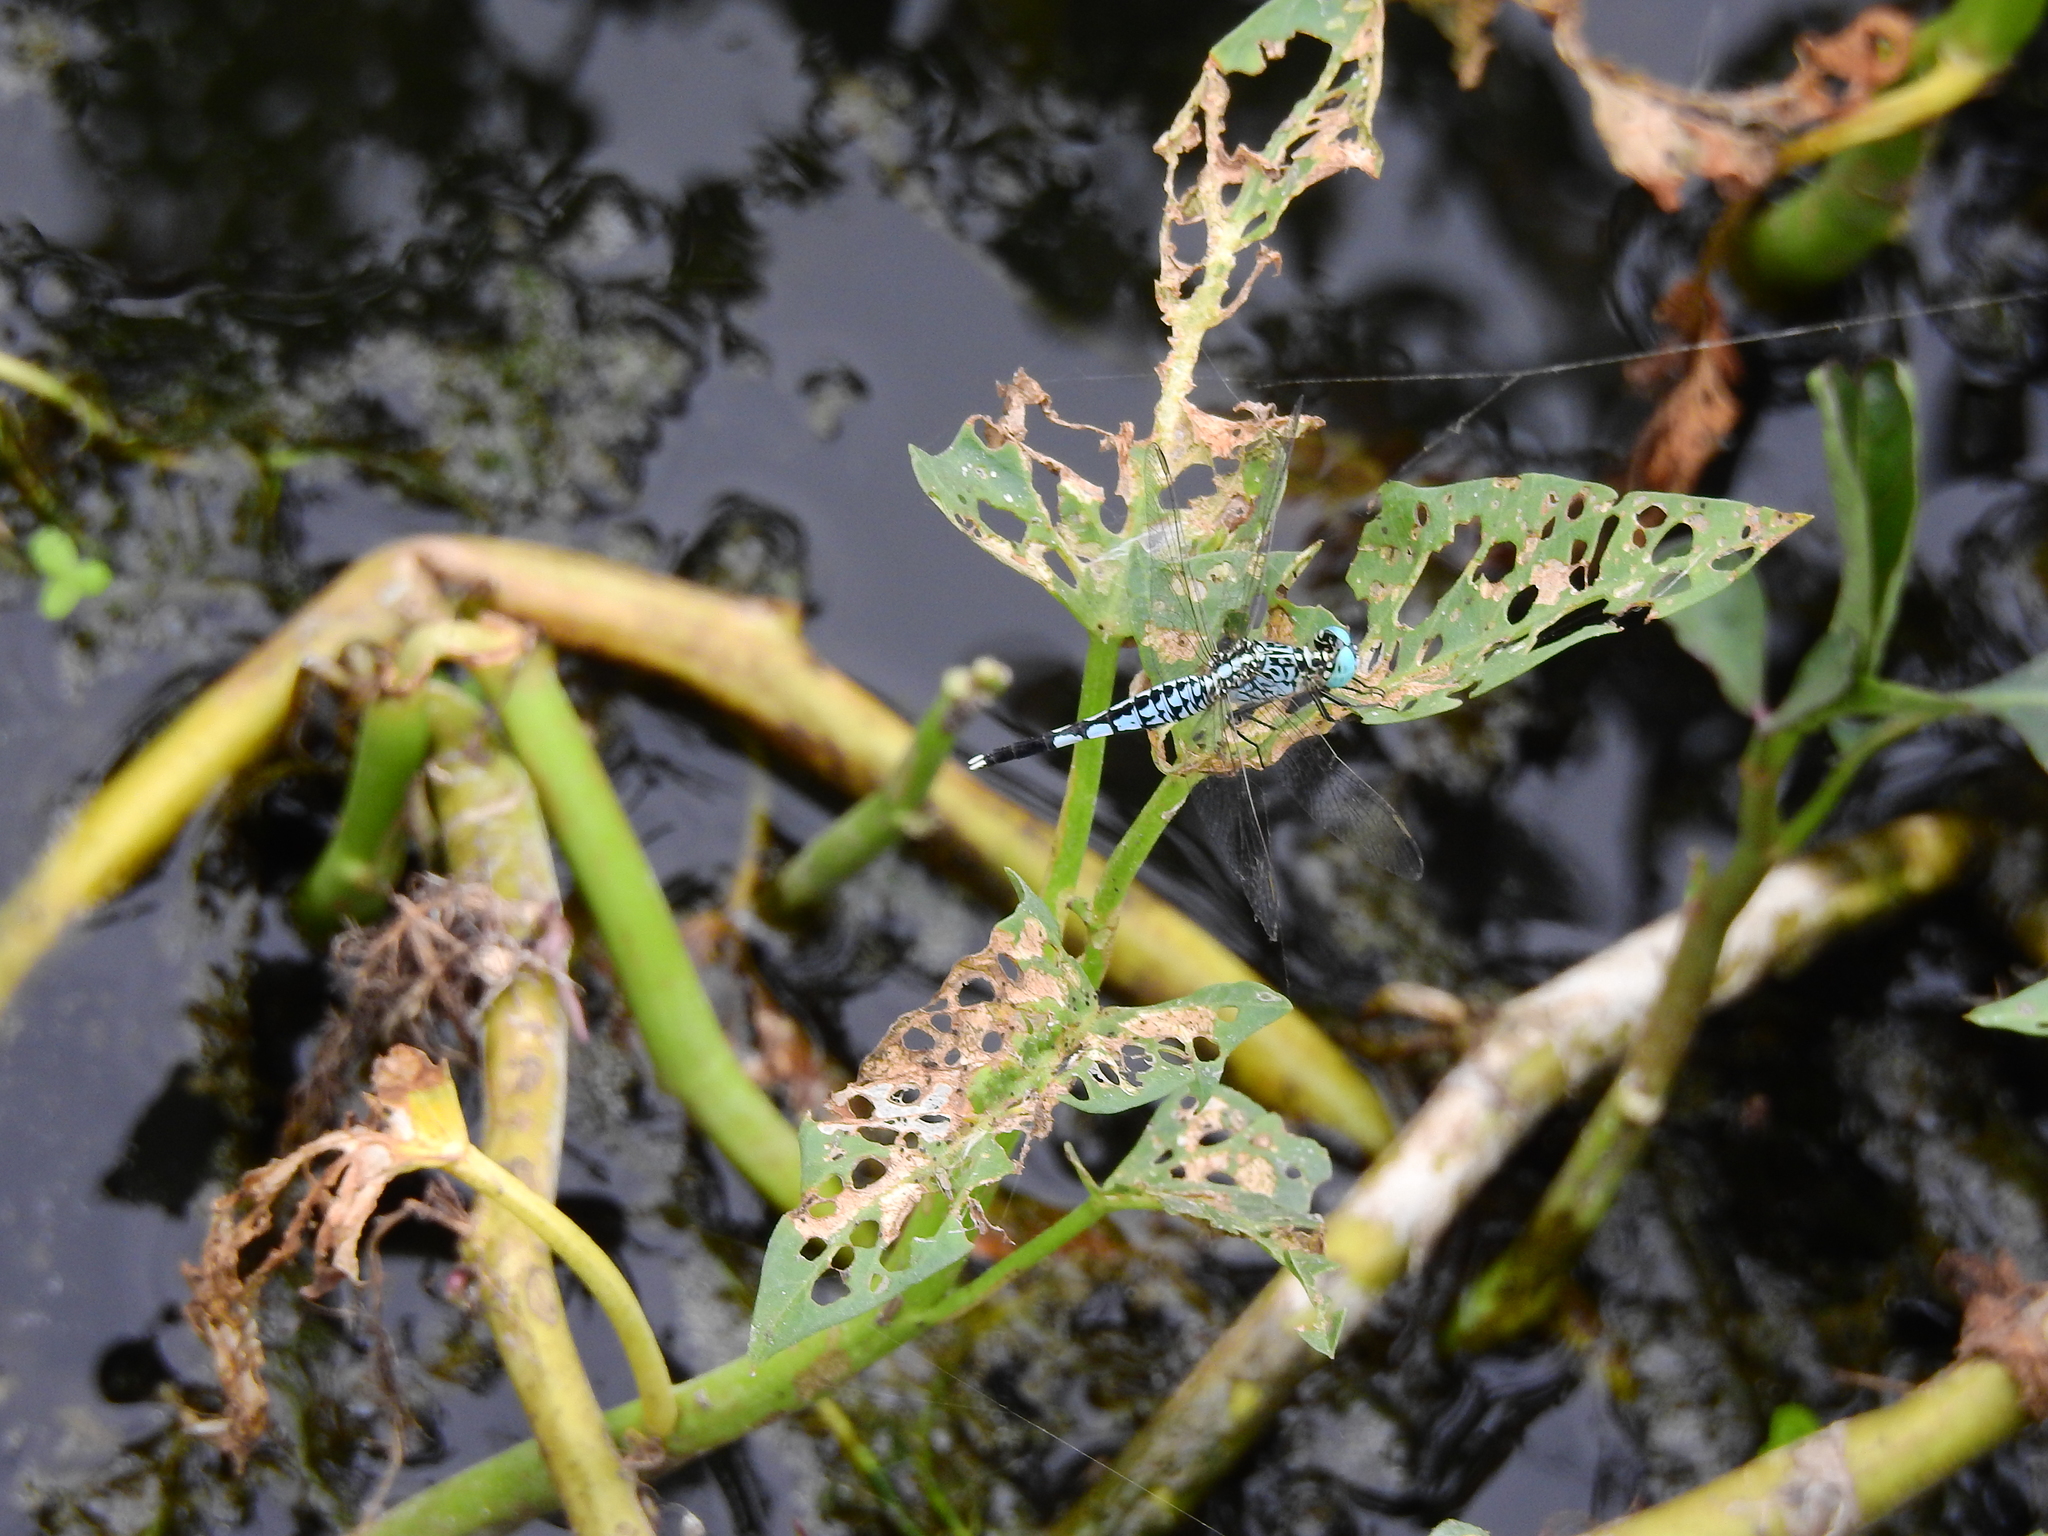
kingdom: Animalia
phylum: Arthropoda
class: Insecta
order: Odonata
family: Libellulidae
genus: Acisoma
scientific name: Acisoma panorpoides
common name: Asian pintail
